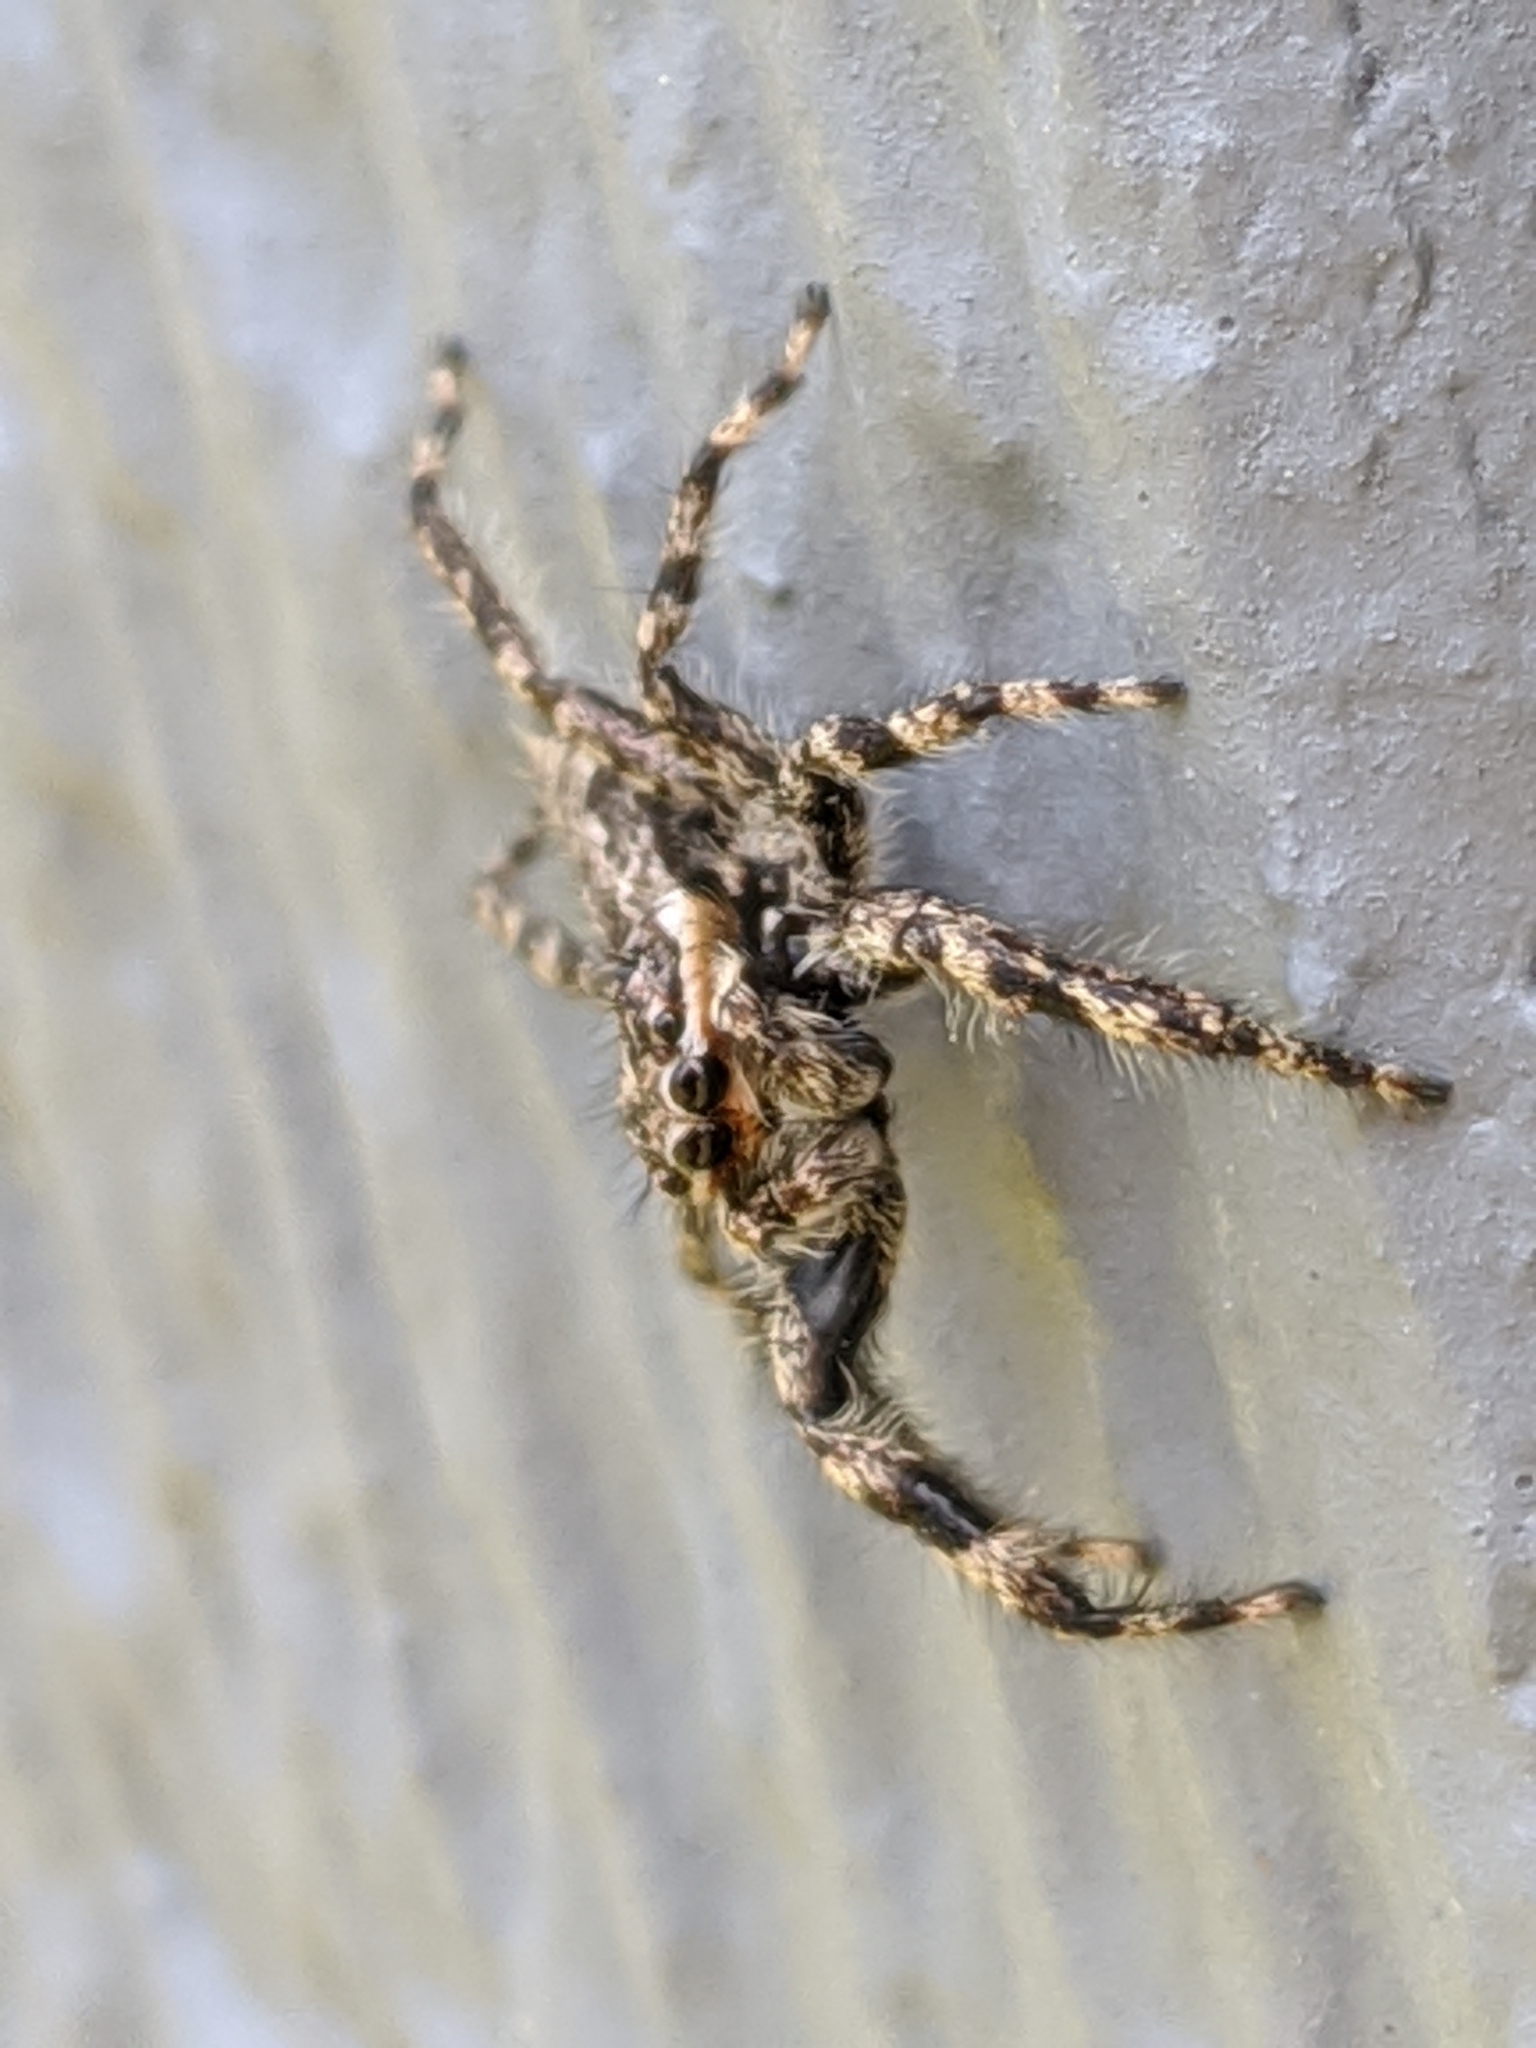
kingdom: Animalia
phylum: Arthropoda
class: Arachnida
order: Araneae
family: Salticidae
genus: Platycryptus
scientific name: Platycryptus undatus
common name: Tan jumping spider
